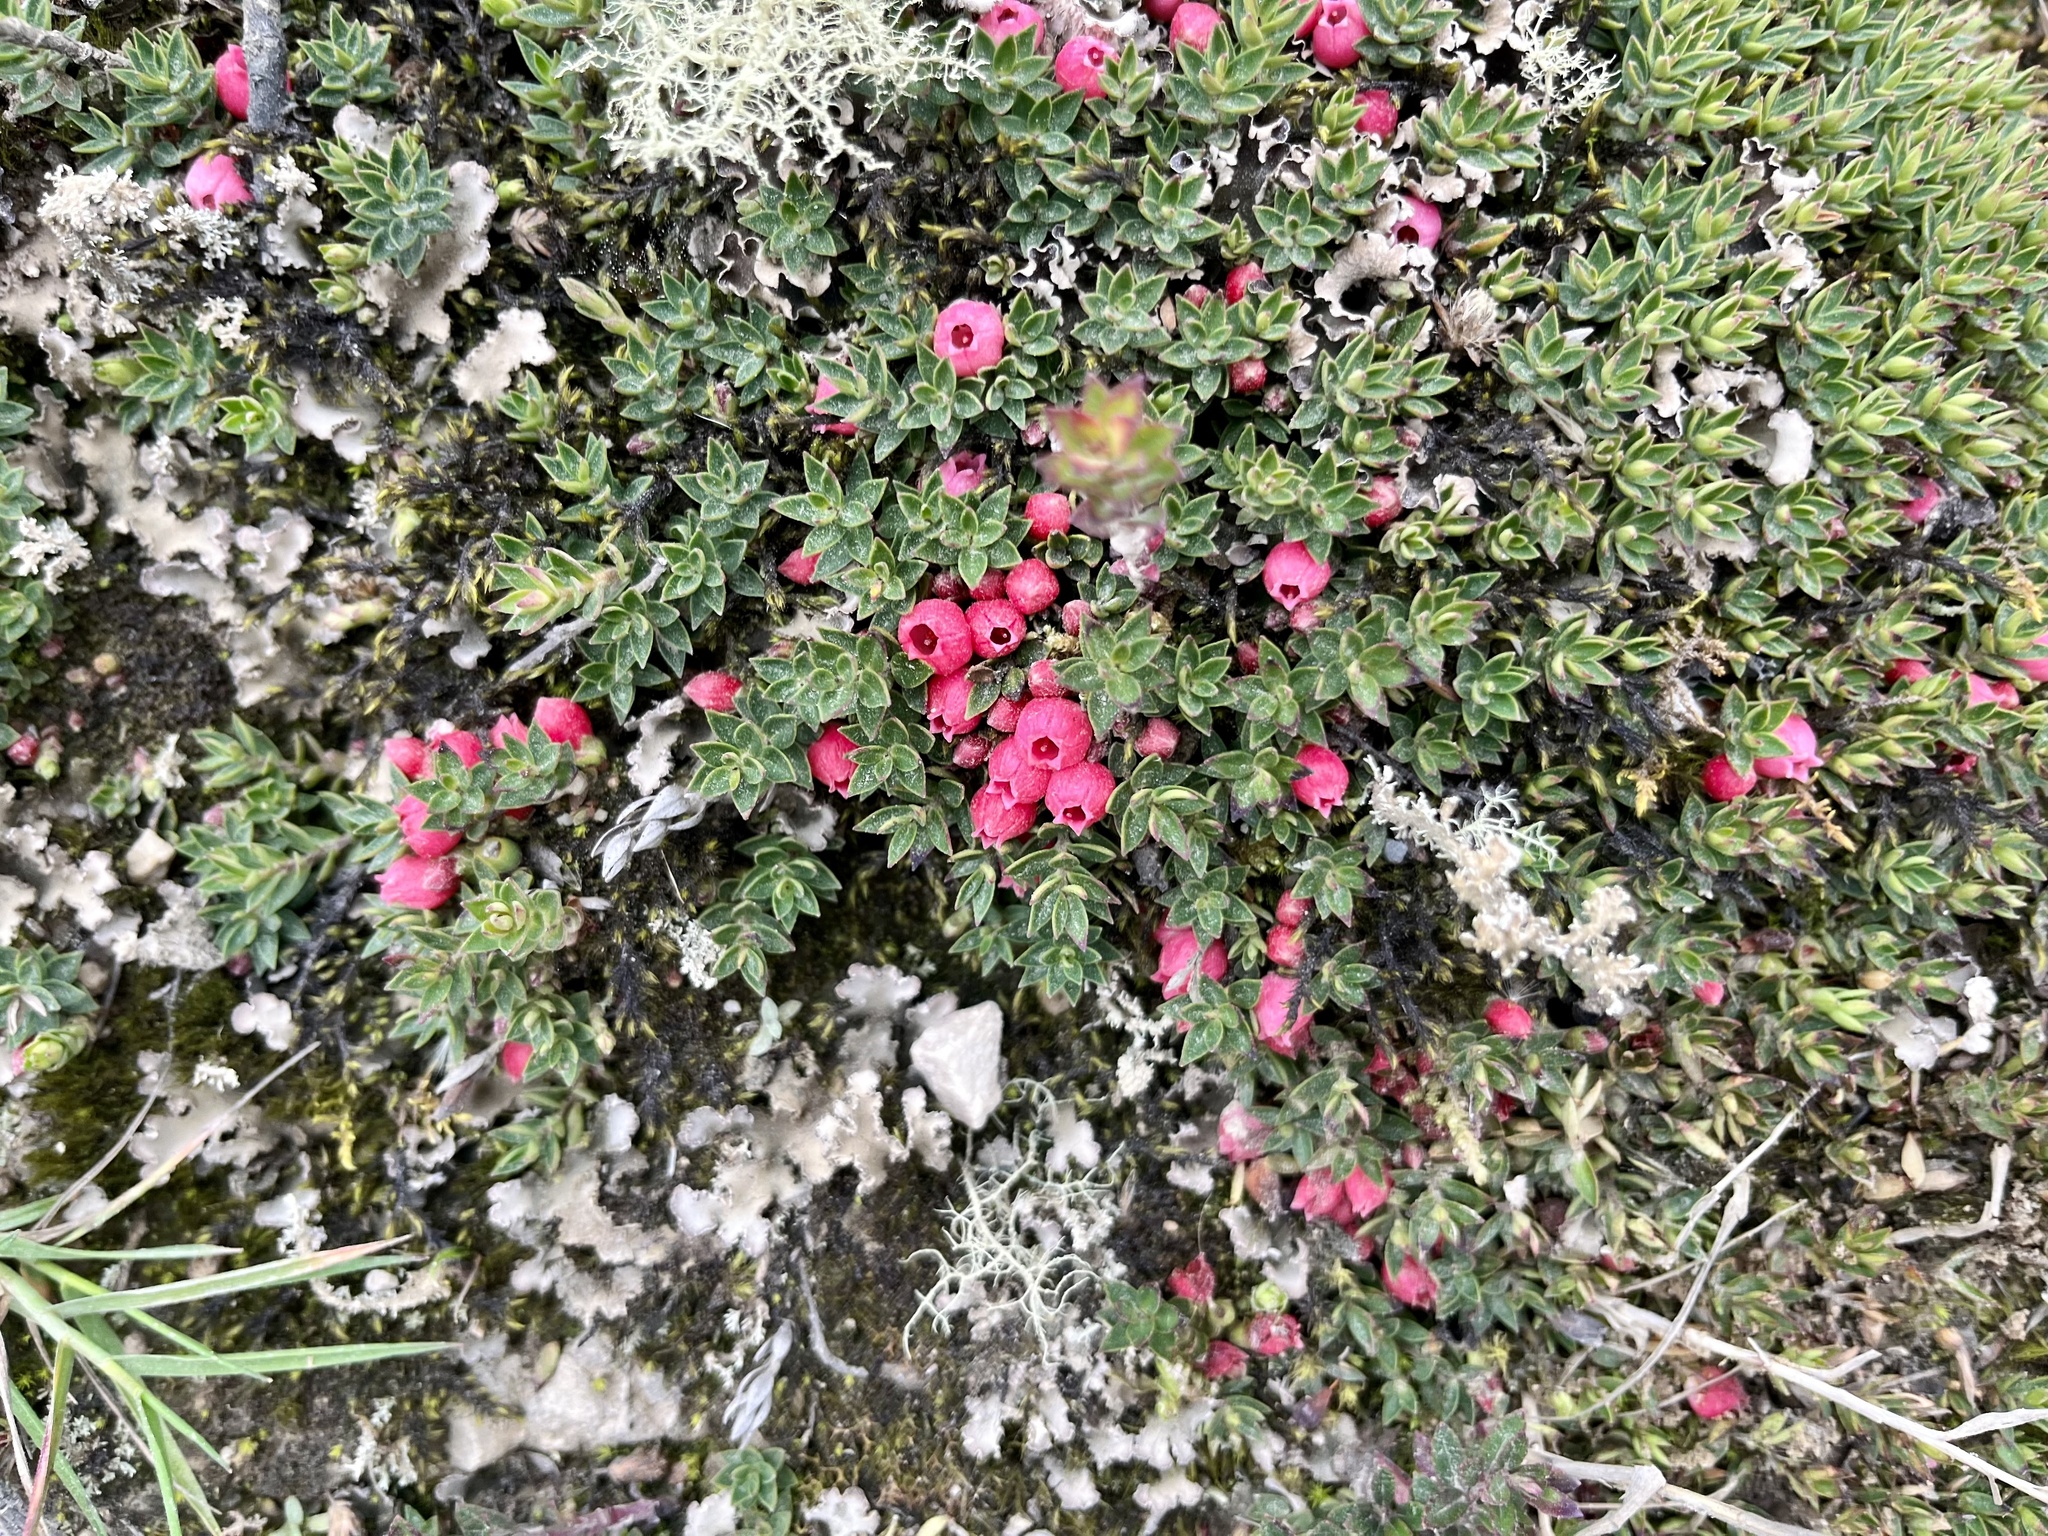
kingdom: Plantae
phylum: Tracheophyta
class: Magnoliopsida
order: Ericales
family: Ericaceae
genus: Disterigma
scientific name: Disterigma empetrifolium
